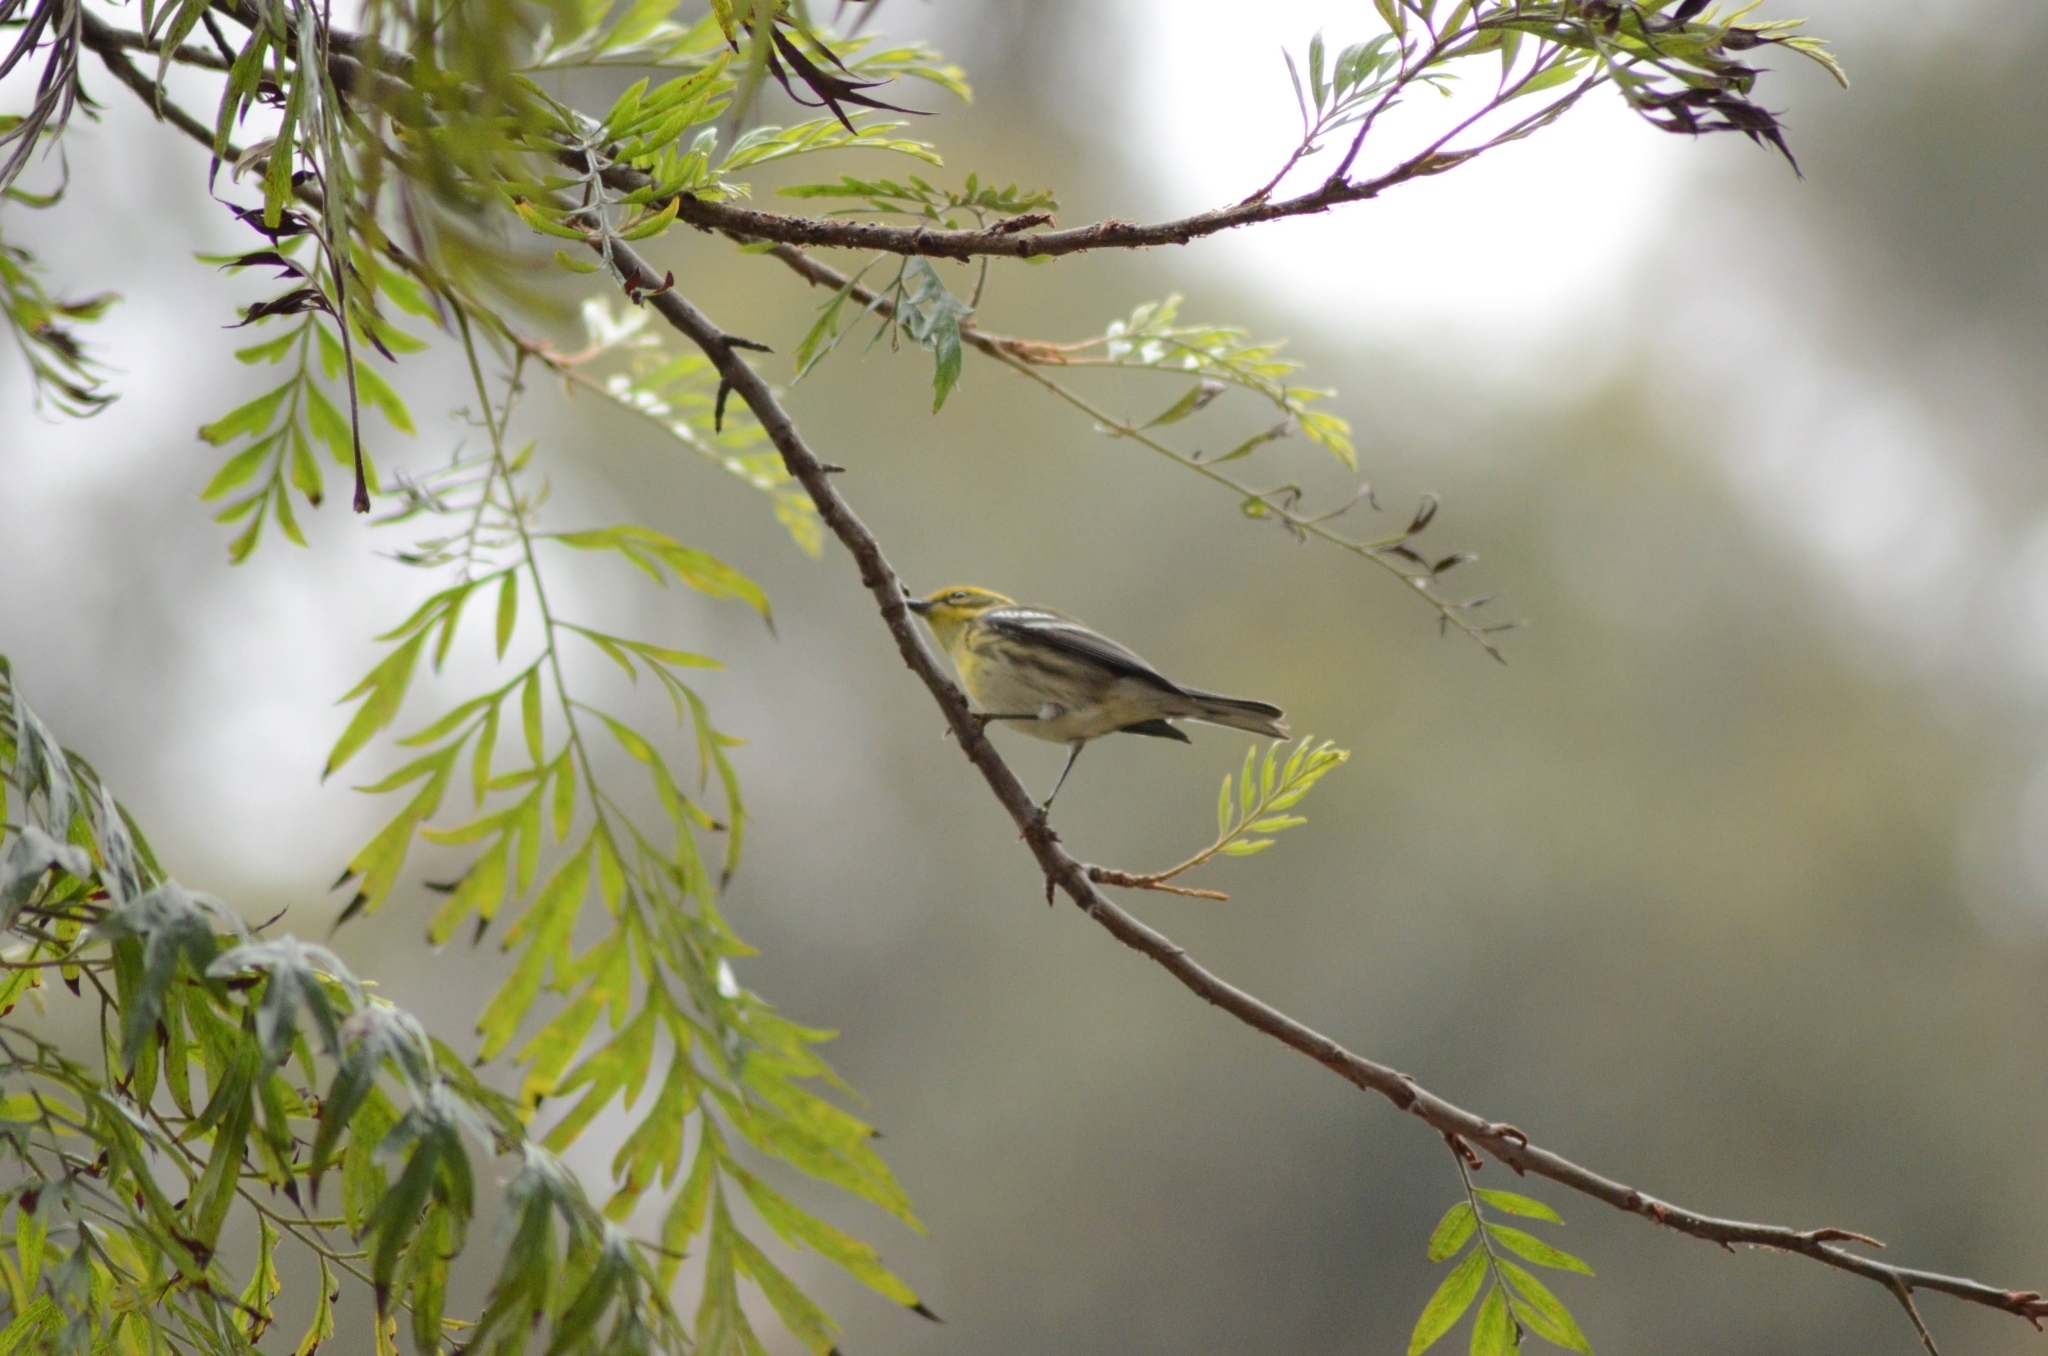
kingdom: Animalia
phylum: Chordata
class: Aves
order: Passeriformes
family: Parulidae
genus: Setophaga
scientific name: Setophaga townsendi
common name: Townsend's warbler
